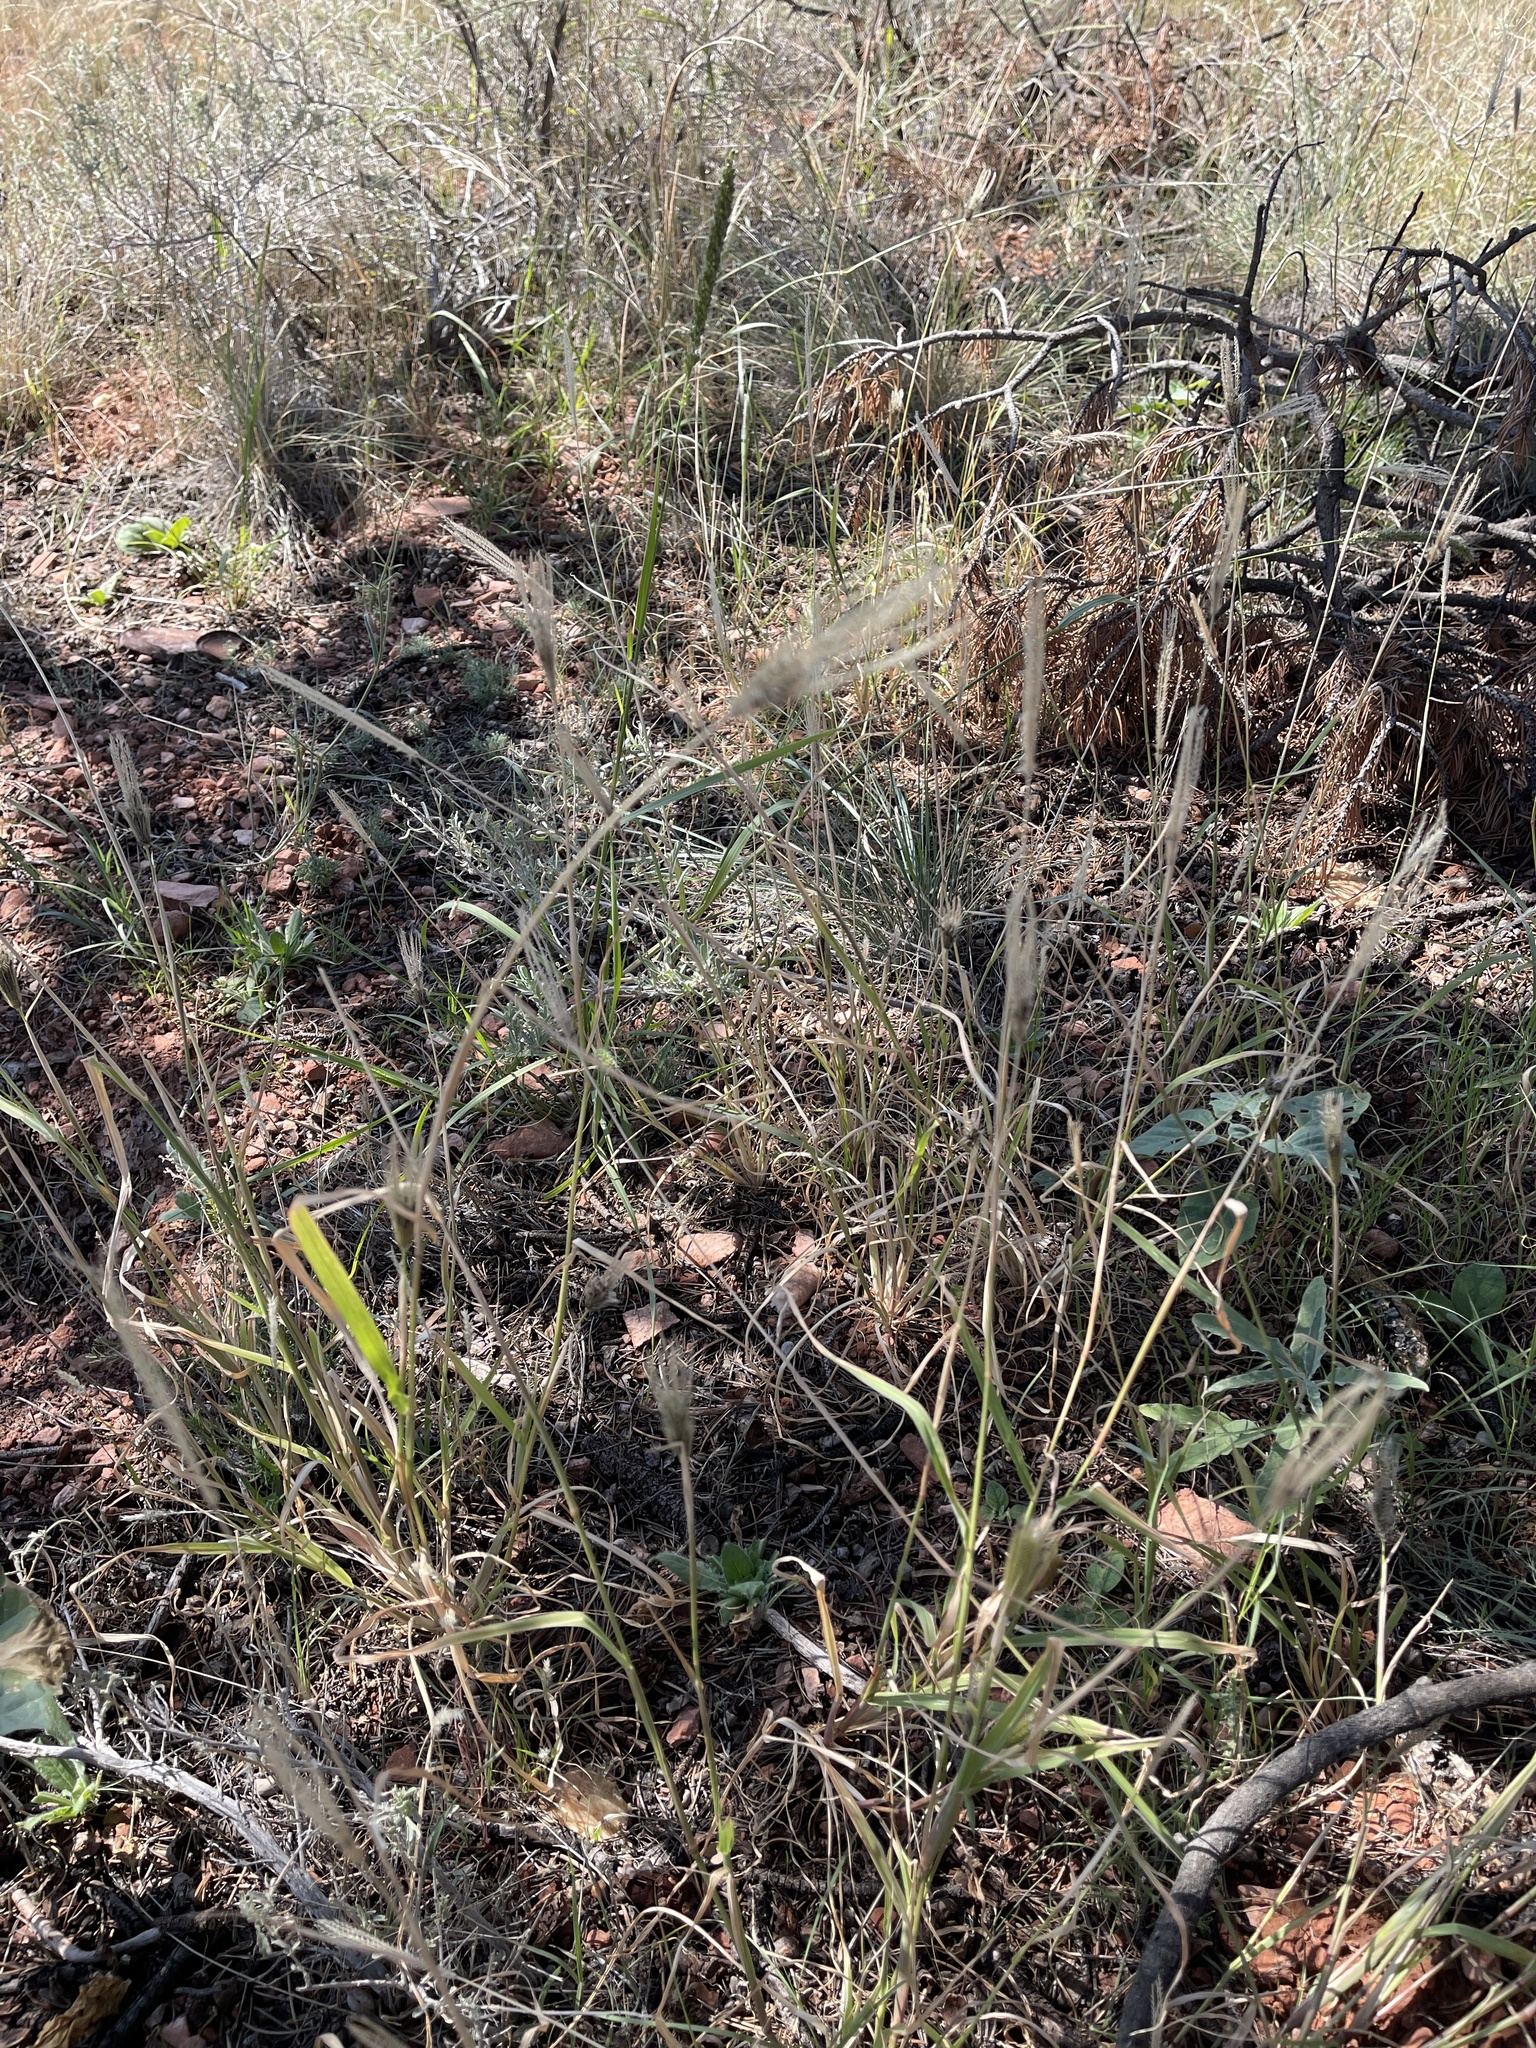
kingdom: Plantae
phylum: Tracheophyta
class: Liliopsida
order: Poales
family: Poaceae
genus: Chloris
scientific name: Chloris virgata
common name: Feathery rhodes-grass
